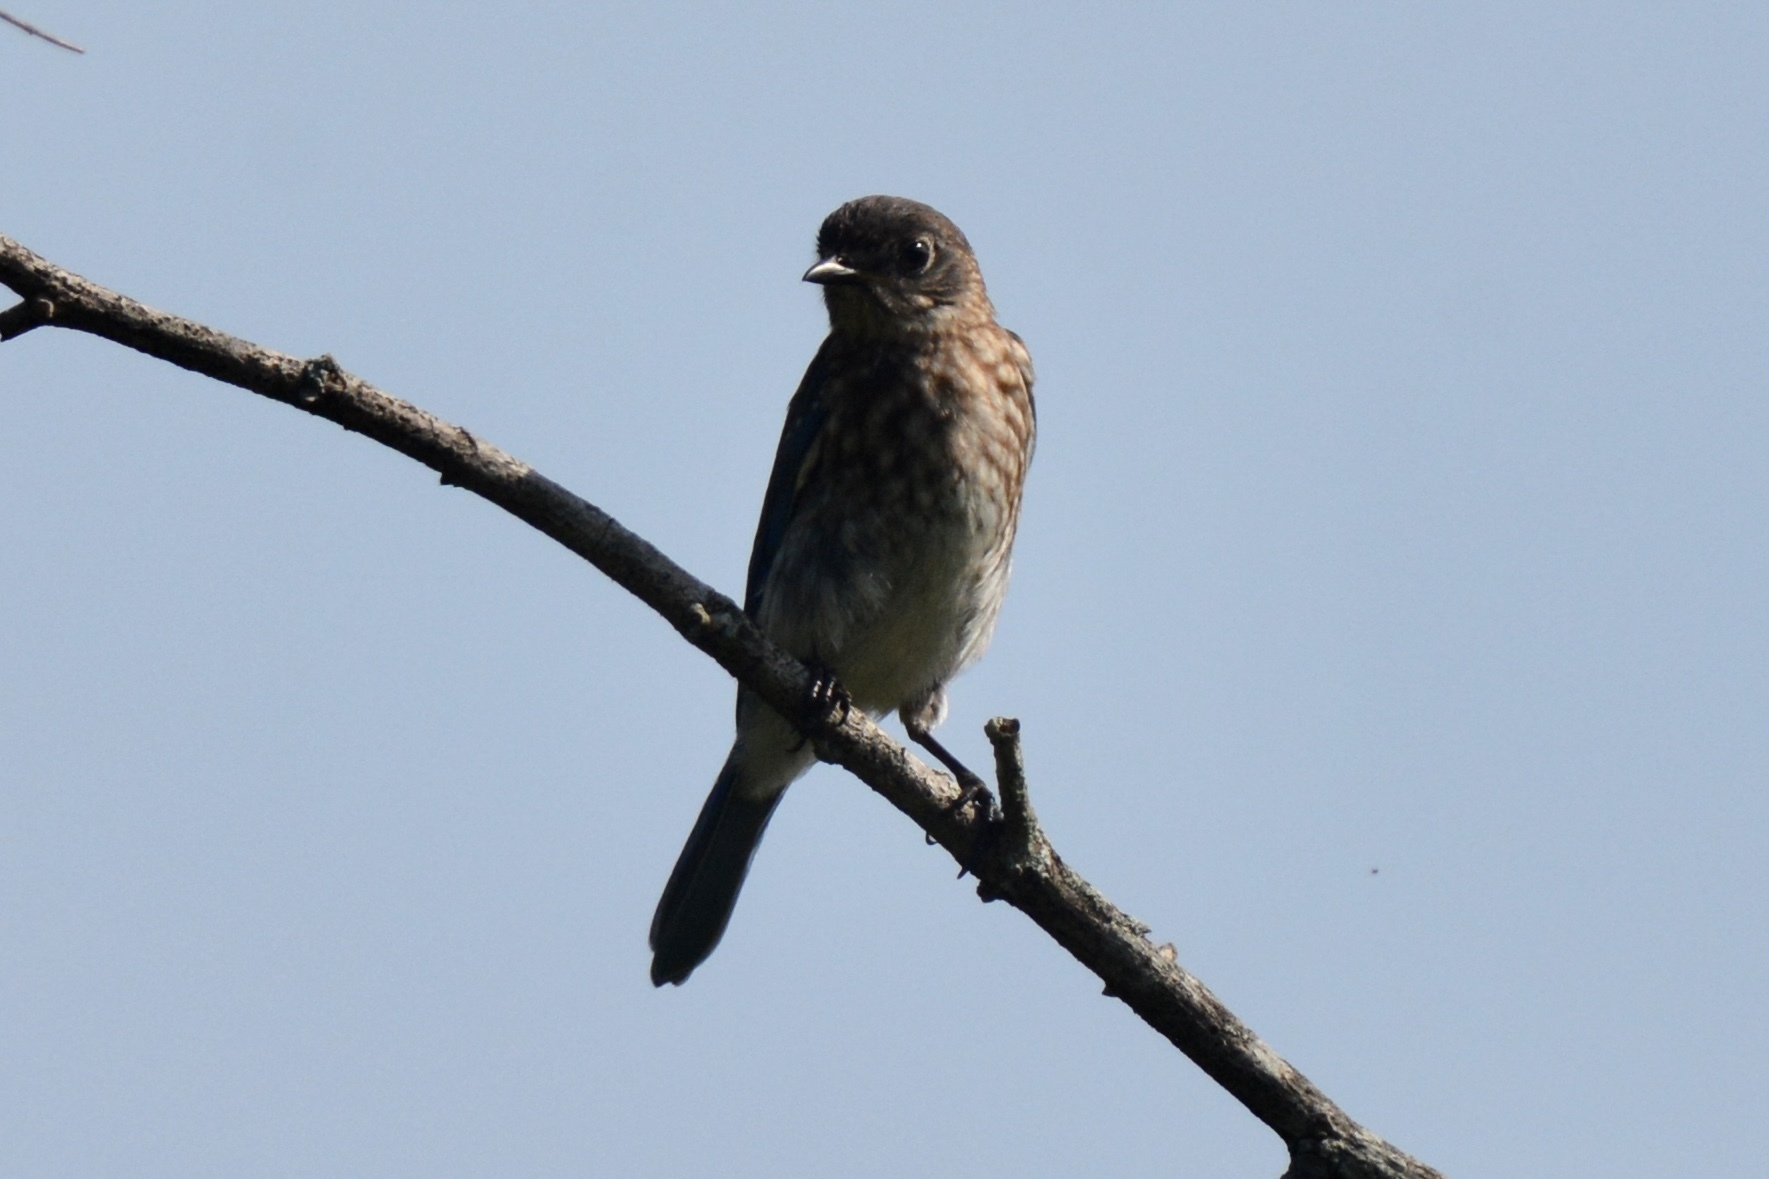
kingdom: Animalia
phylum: Chordata
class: Aves
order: Passeriformes
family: Turdidae
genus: Sialia
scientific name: Sialia sialis
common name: Eastern bluebird
